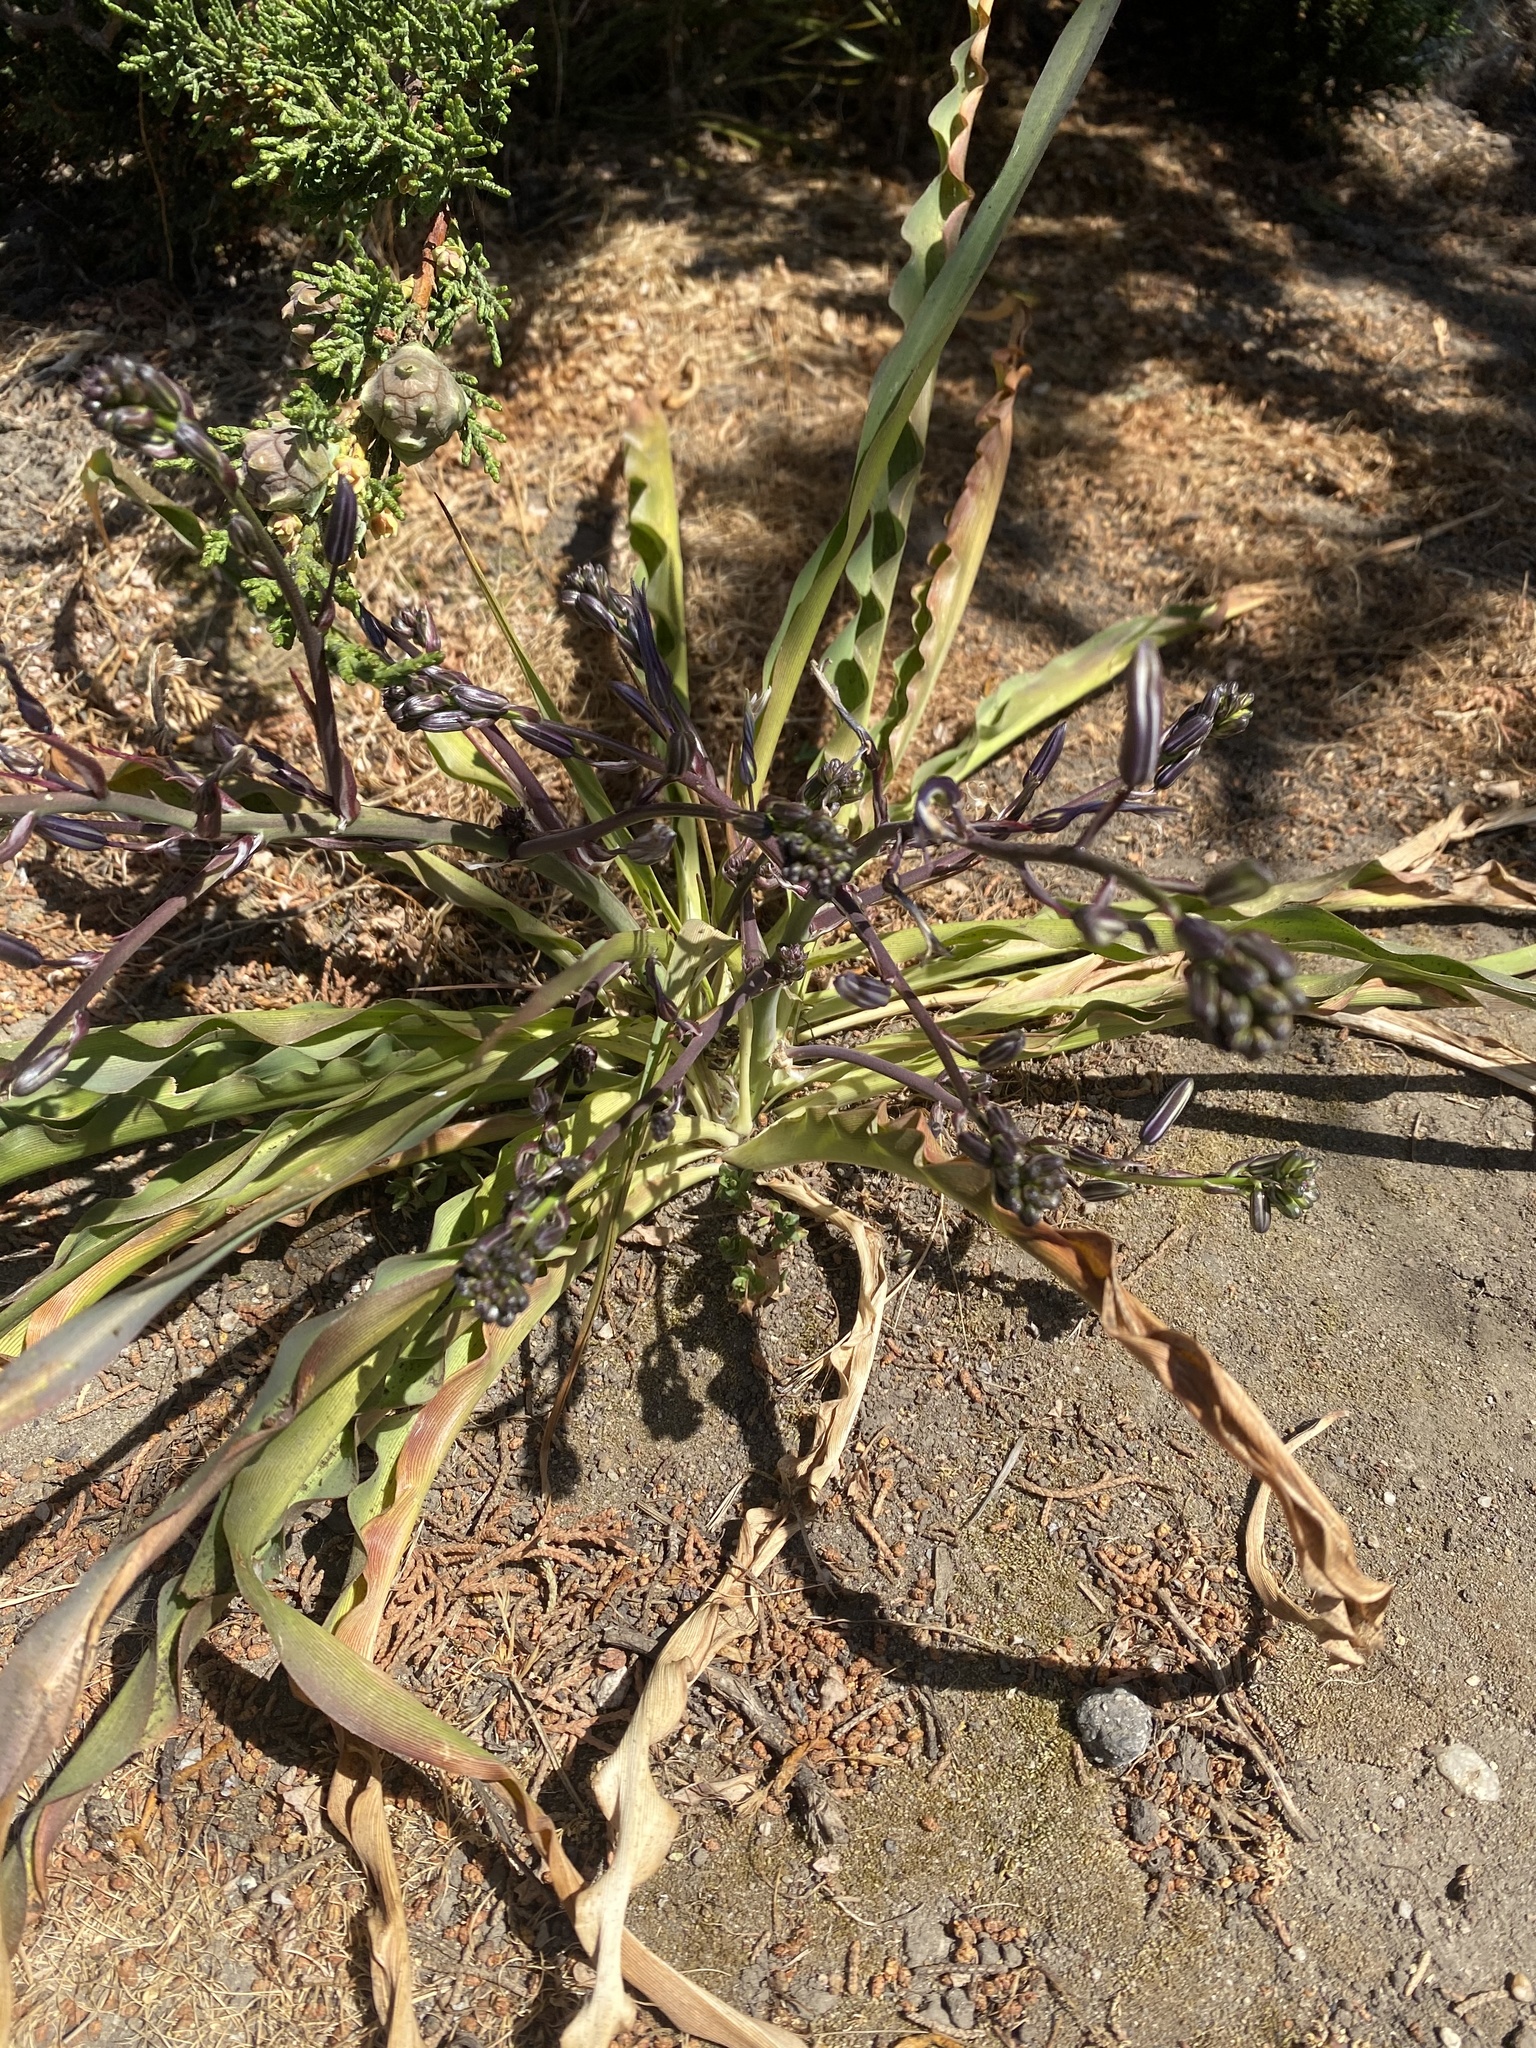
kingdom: Plantae
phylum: Tracheophyta
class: Liliopsida
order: Asparagales
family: Asparagaceae
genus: Chlorogalum
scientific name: Chlorogalum pomeridianum
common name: Amole
